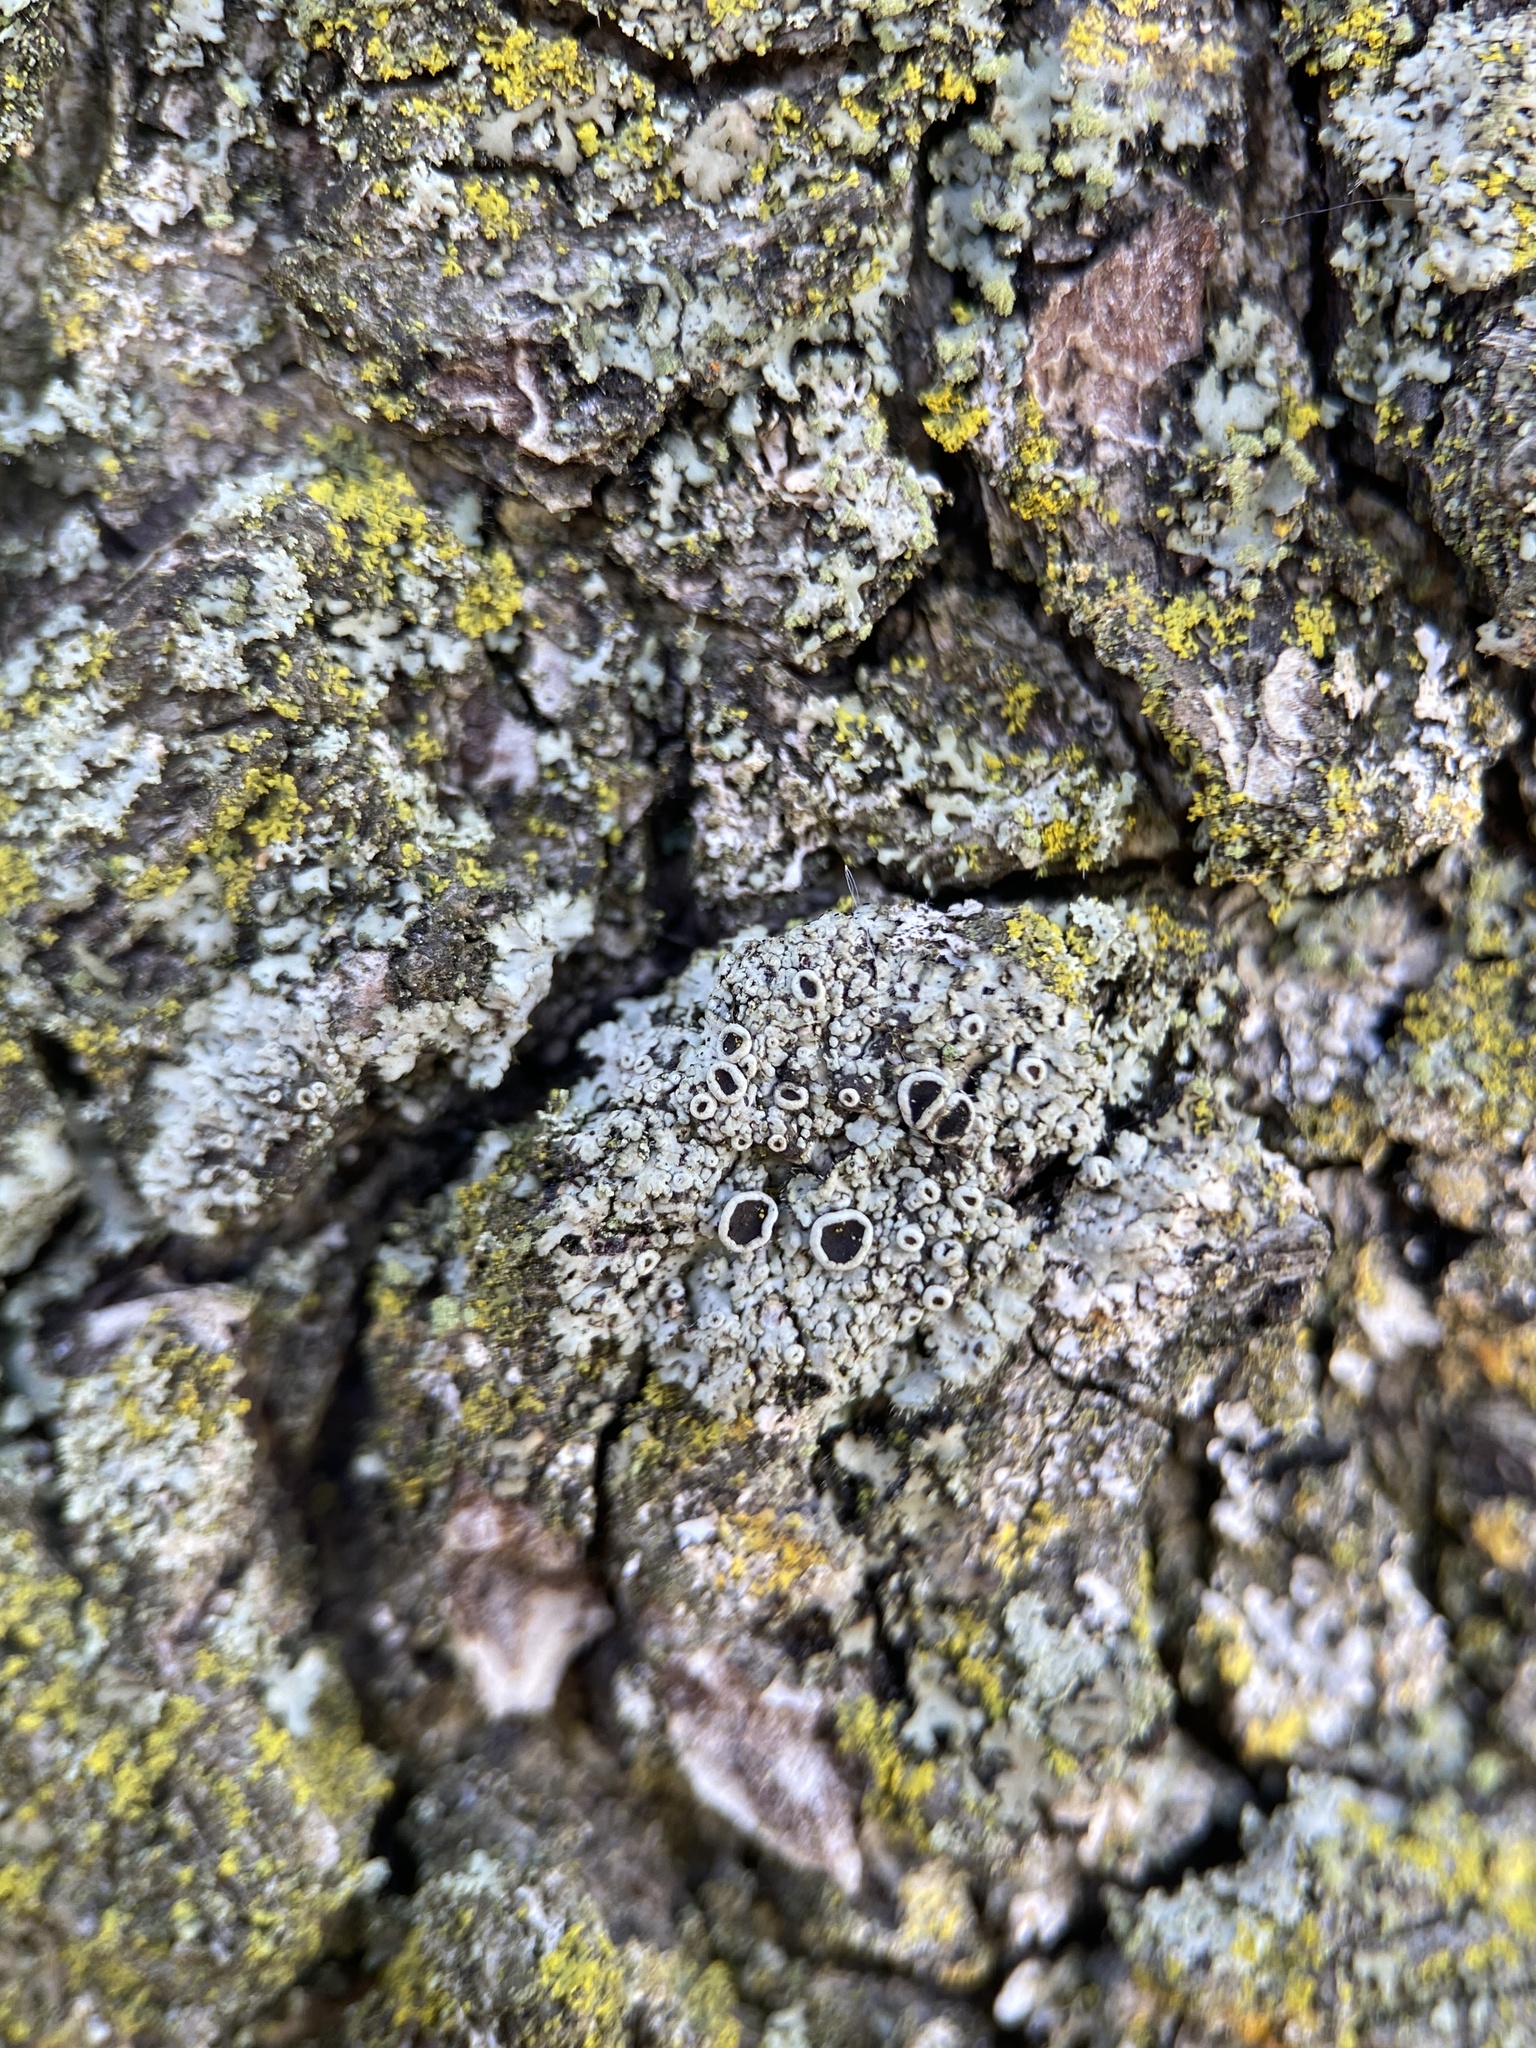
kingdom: Fungi
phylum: Ascomycota
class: Lecanoromycetes
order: Caliciales
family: Physciaceae
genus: Phaeophyscia
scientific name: Phaeophyscia ciliata
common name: Smooth shadow lichen
